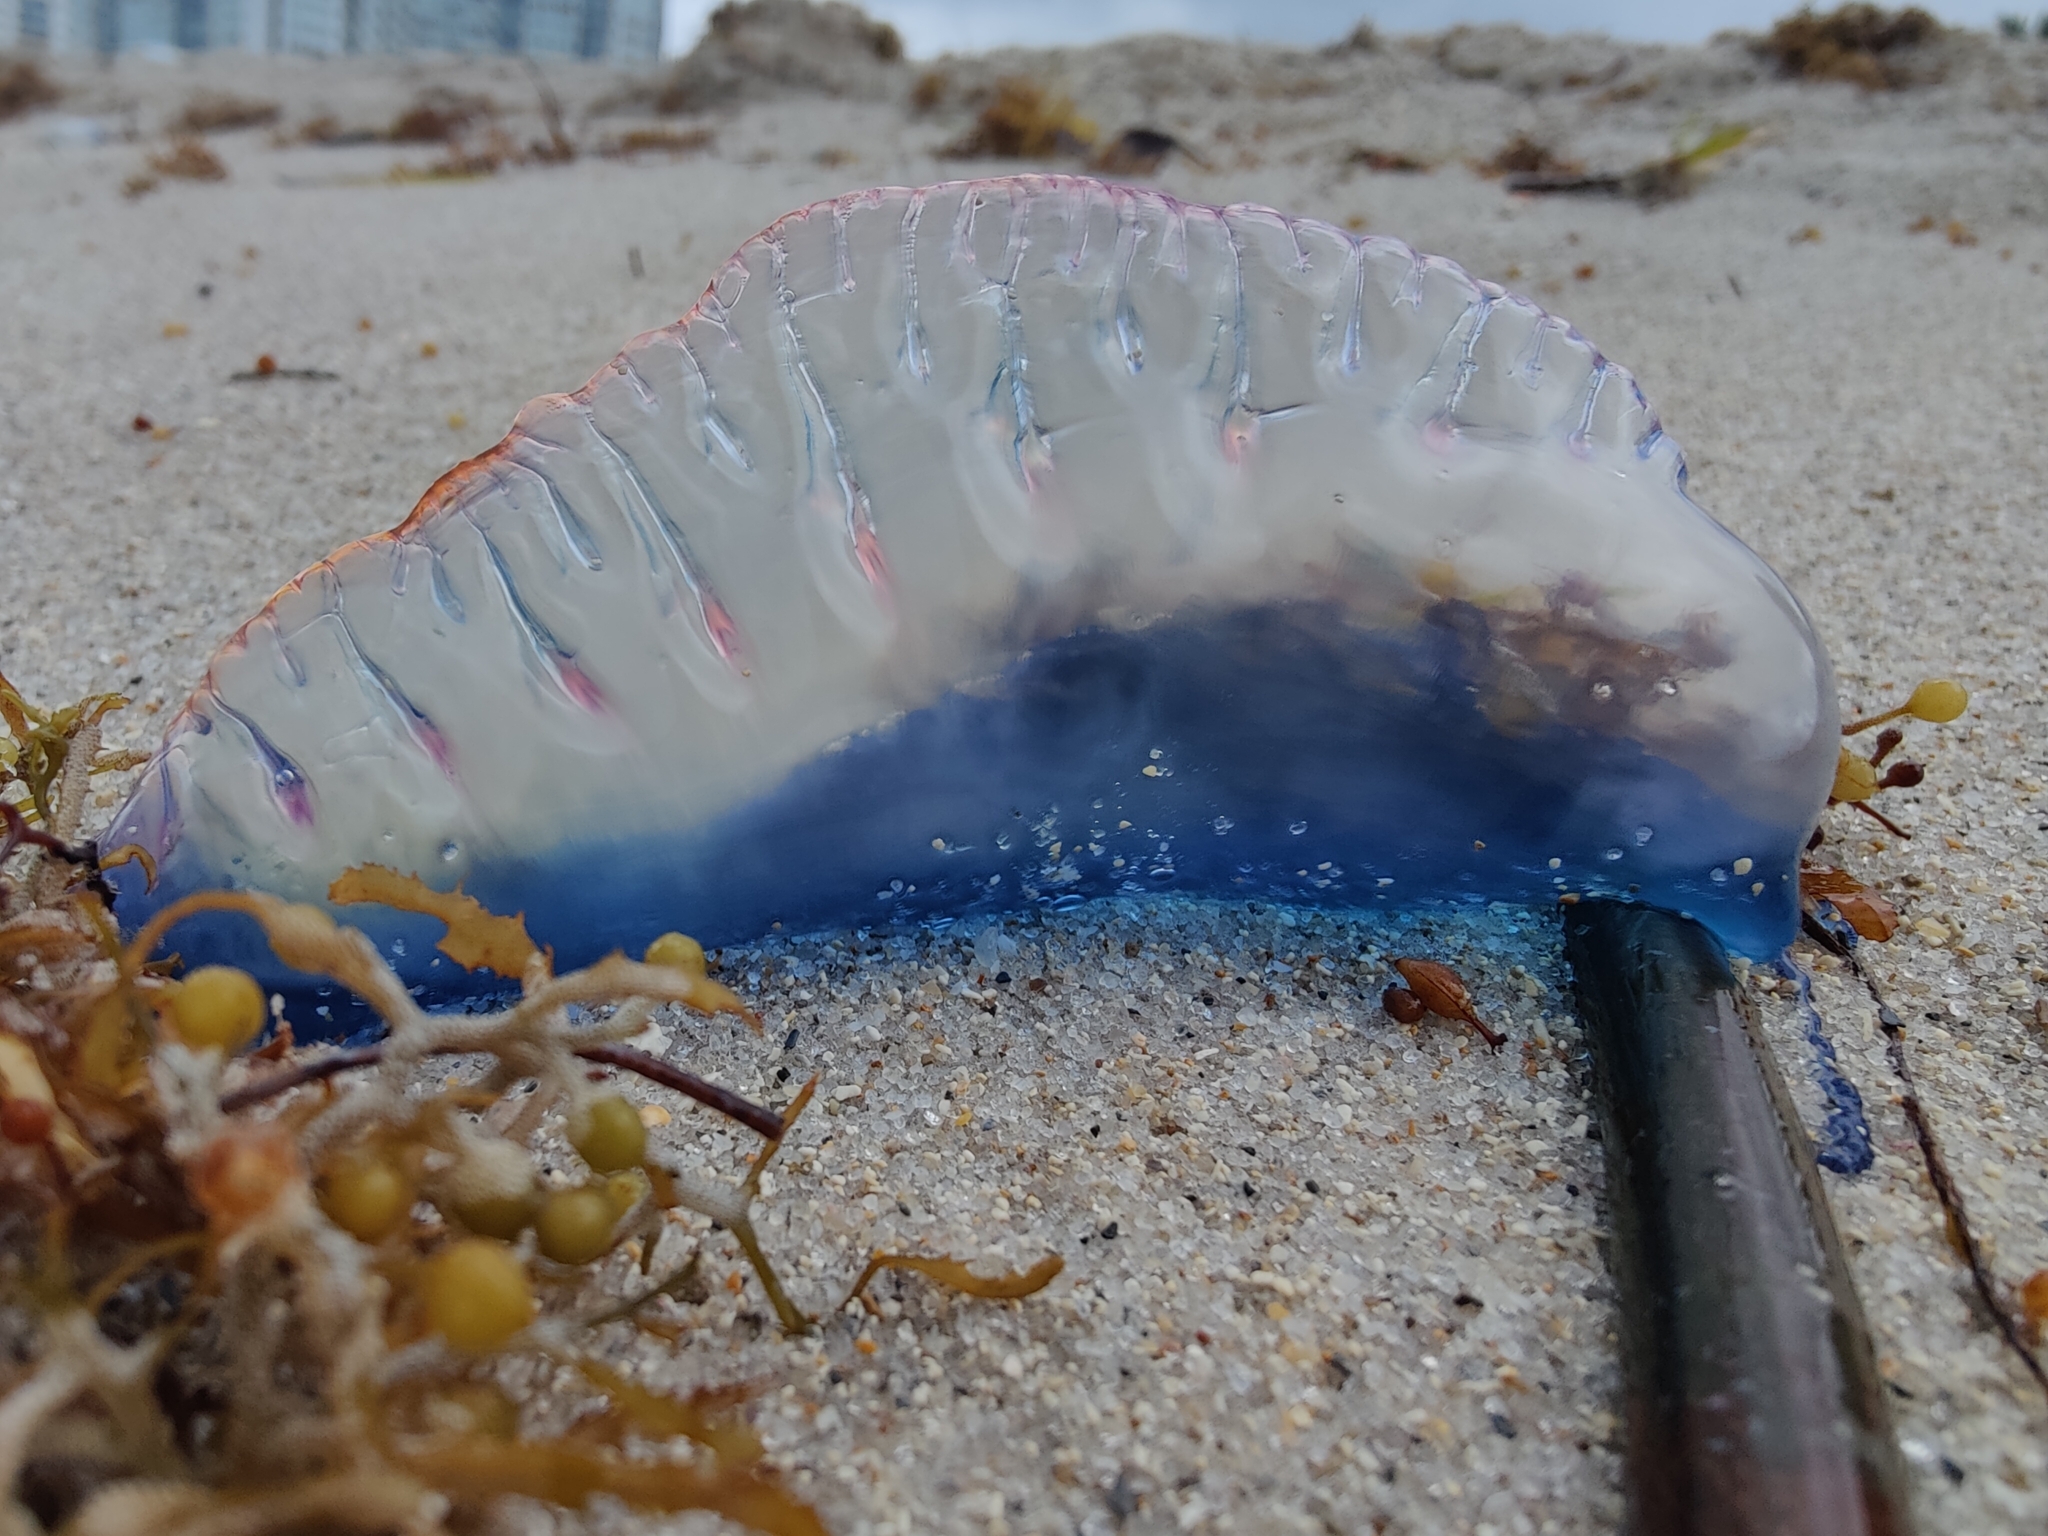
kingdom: Animalia
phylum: Cnidaria
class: Hydrozoa
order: Siphonophorae
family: Physaliidae
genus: Physalia
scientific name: Physalia physalis
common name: Portuguese man-of-war
